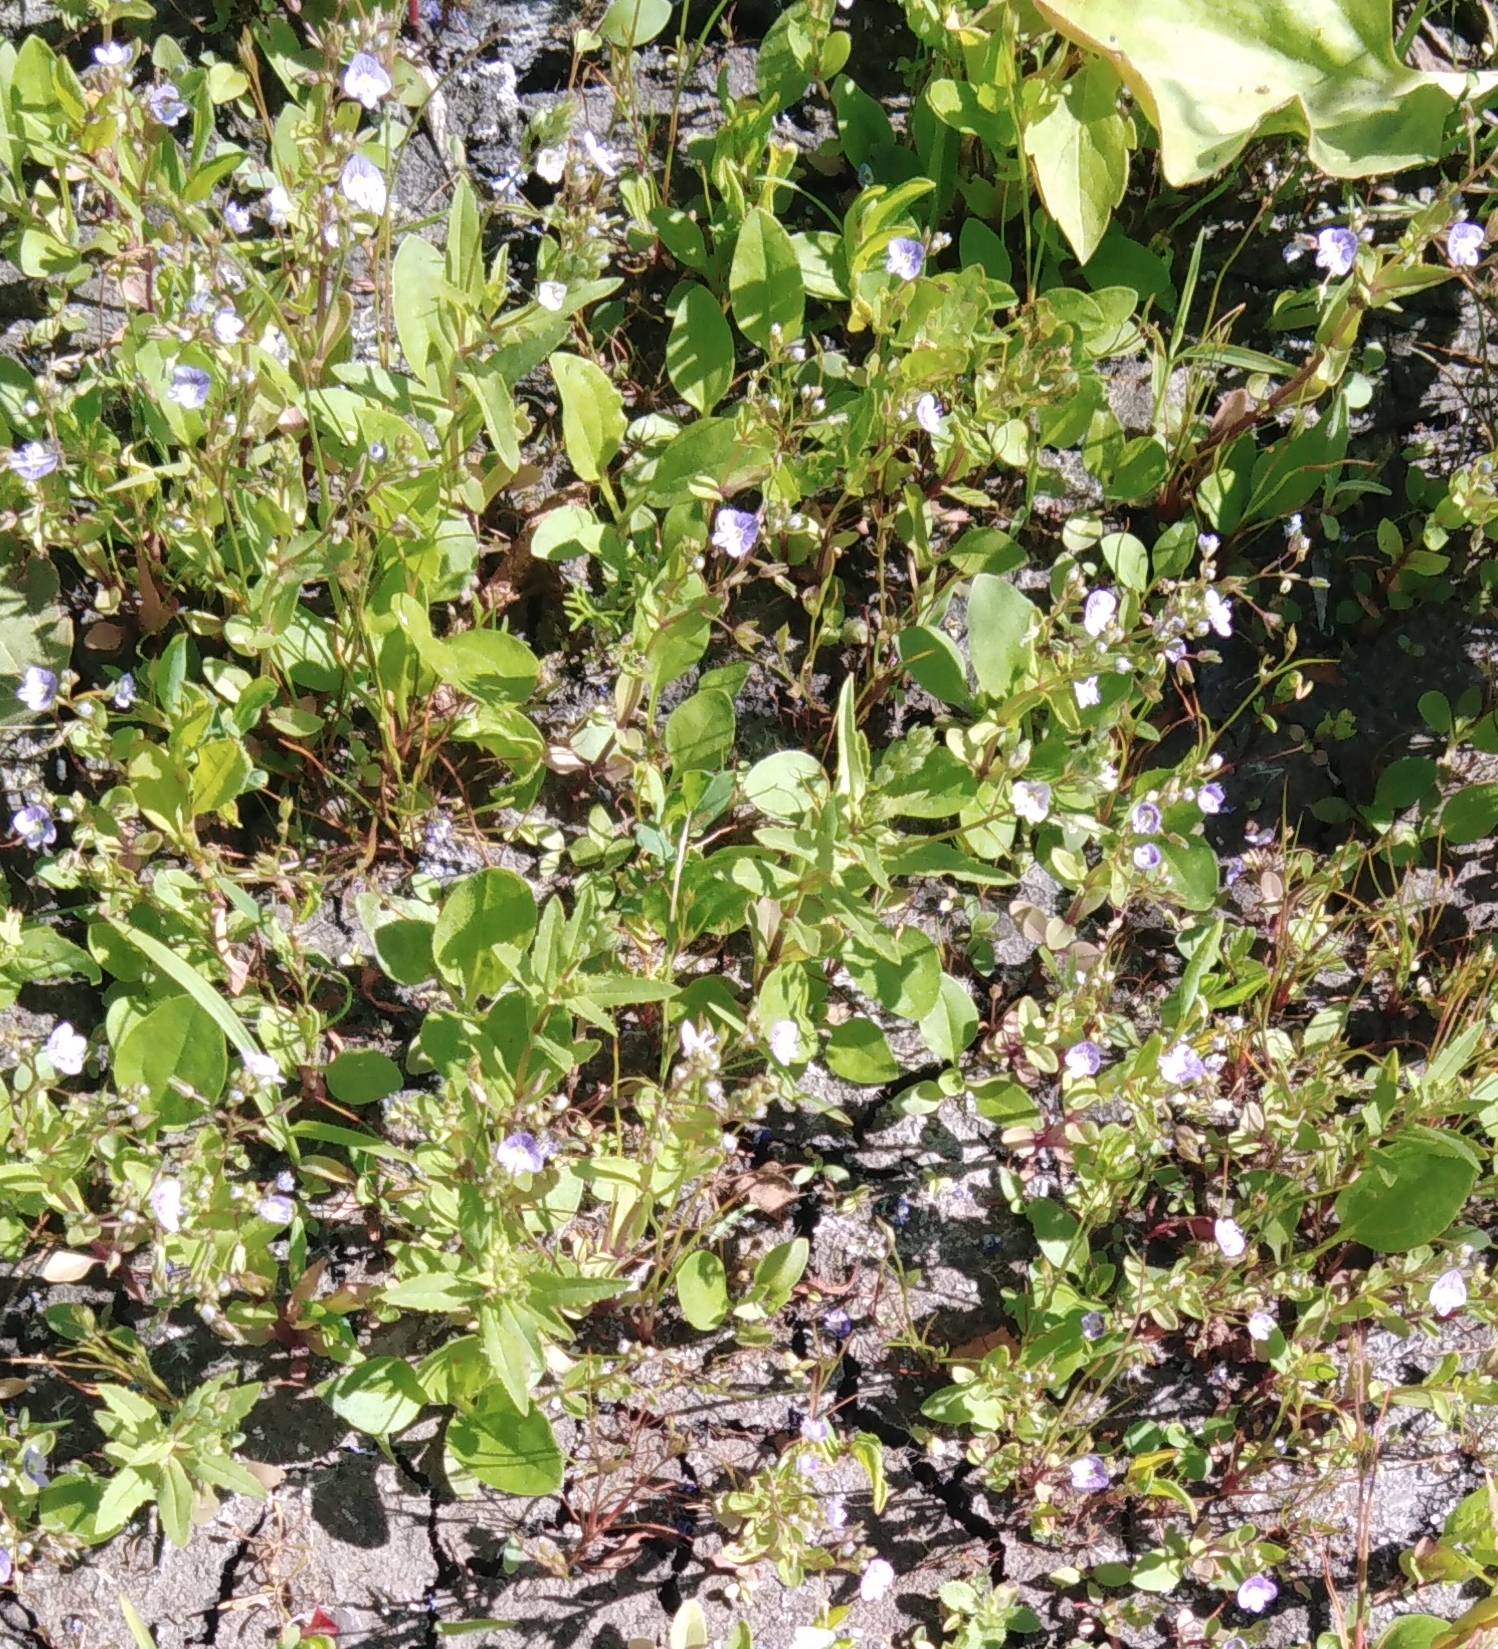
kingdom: Plantae
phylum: Tracheophyta
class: Magnoliopsida
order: Lamiales
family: Plantaginaceae
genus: Veronica
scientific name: Veronica anagallis-aquatica
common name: Water speedwell
